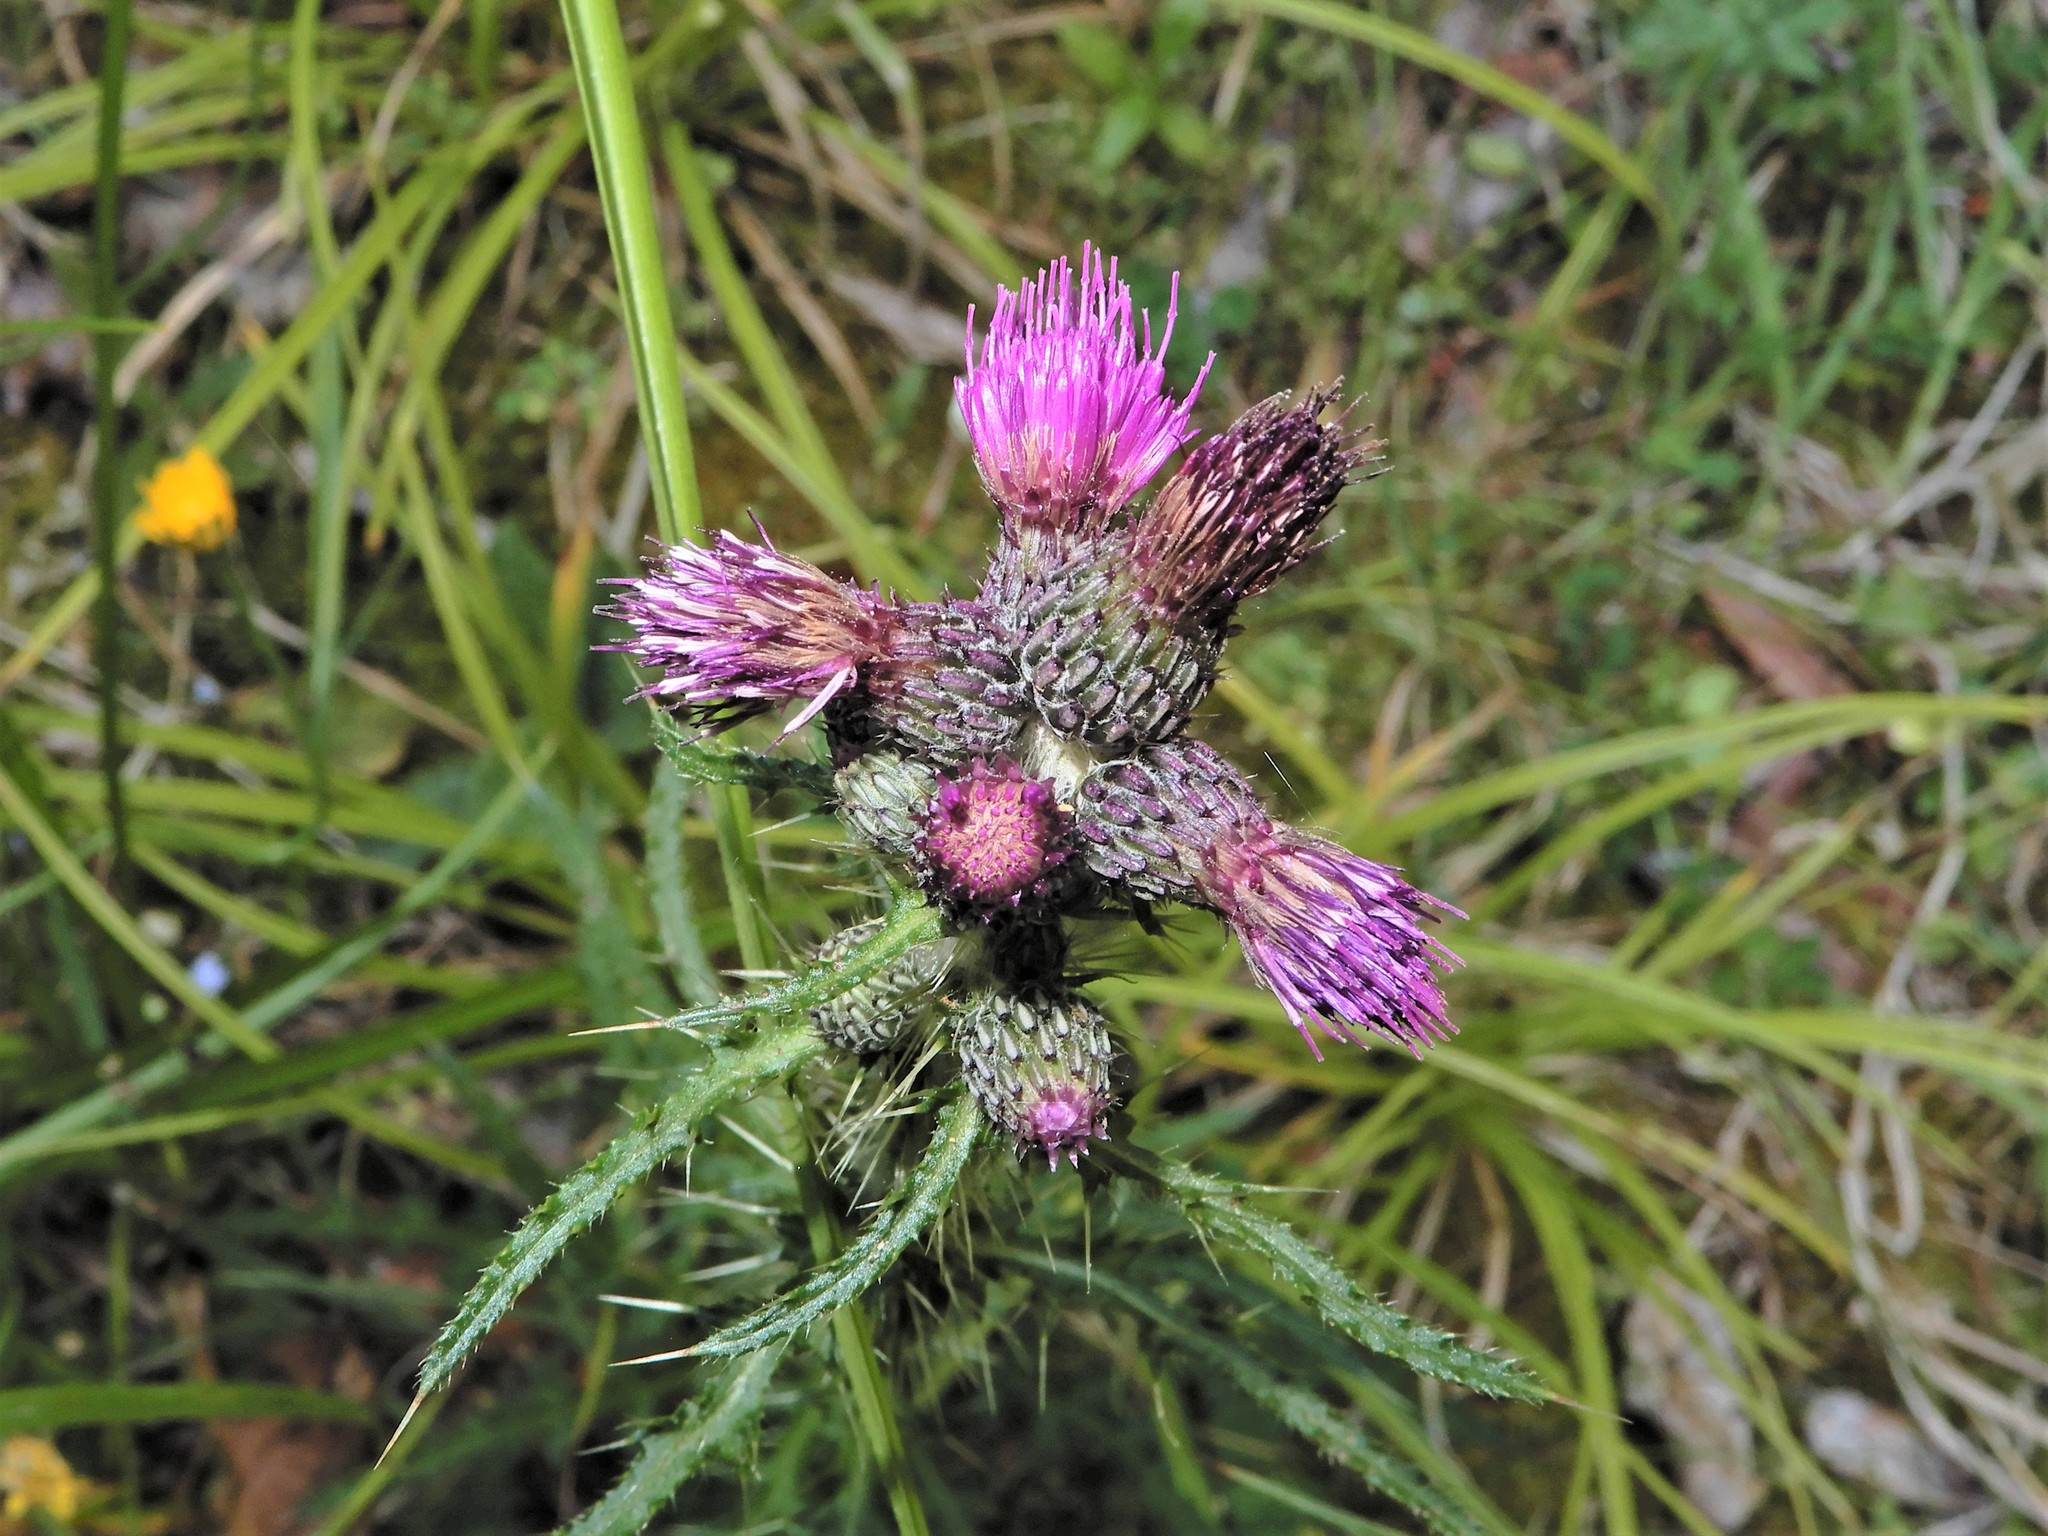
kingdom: Plantae
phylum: Tracheophyta
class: Magnoliopsida
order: Asterales
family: Asteraceae
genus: Cirsium
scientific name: Cirsium palustre
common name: Marsh thistle
